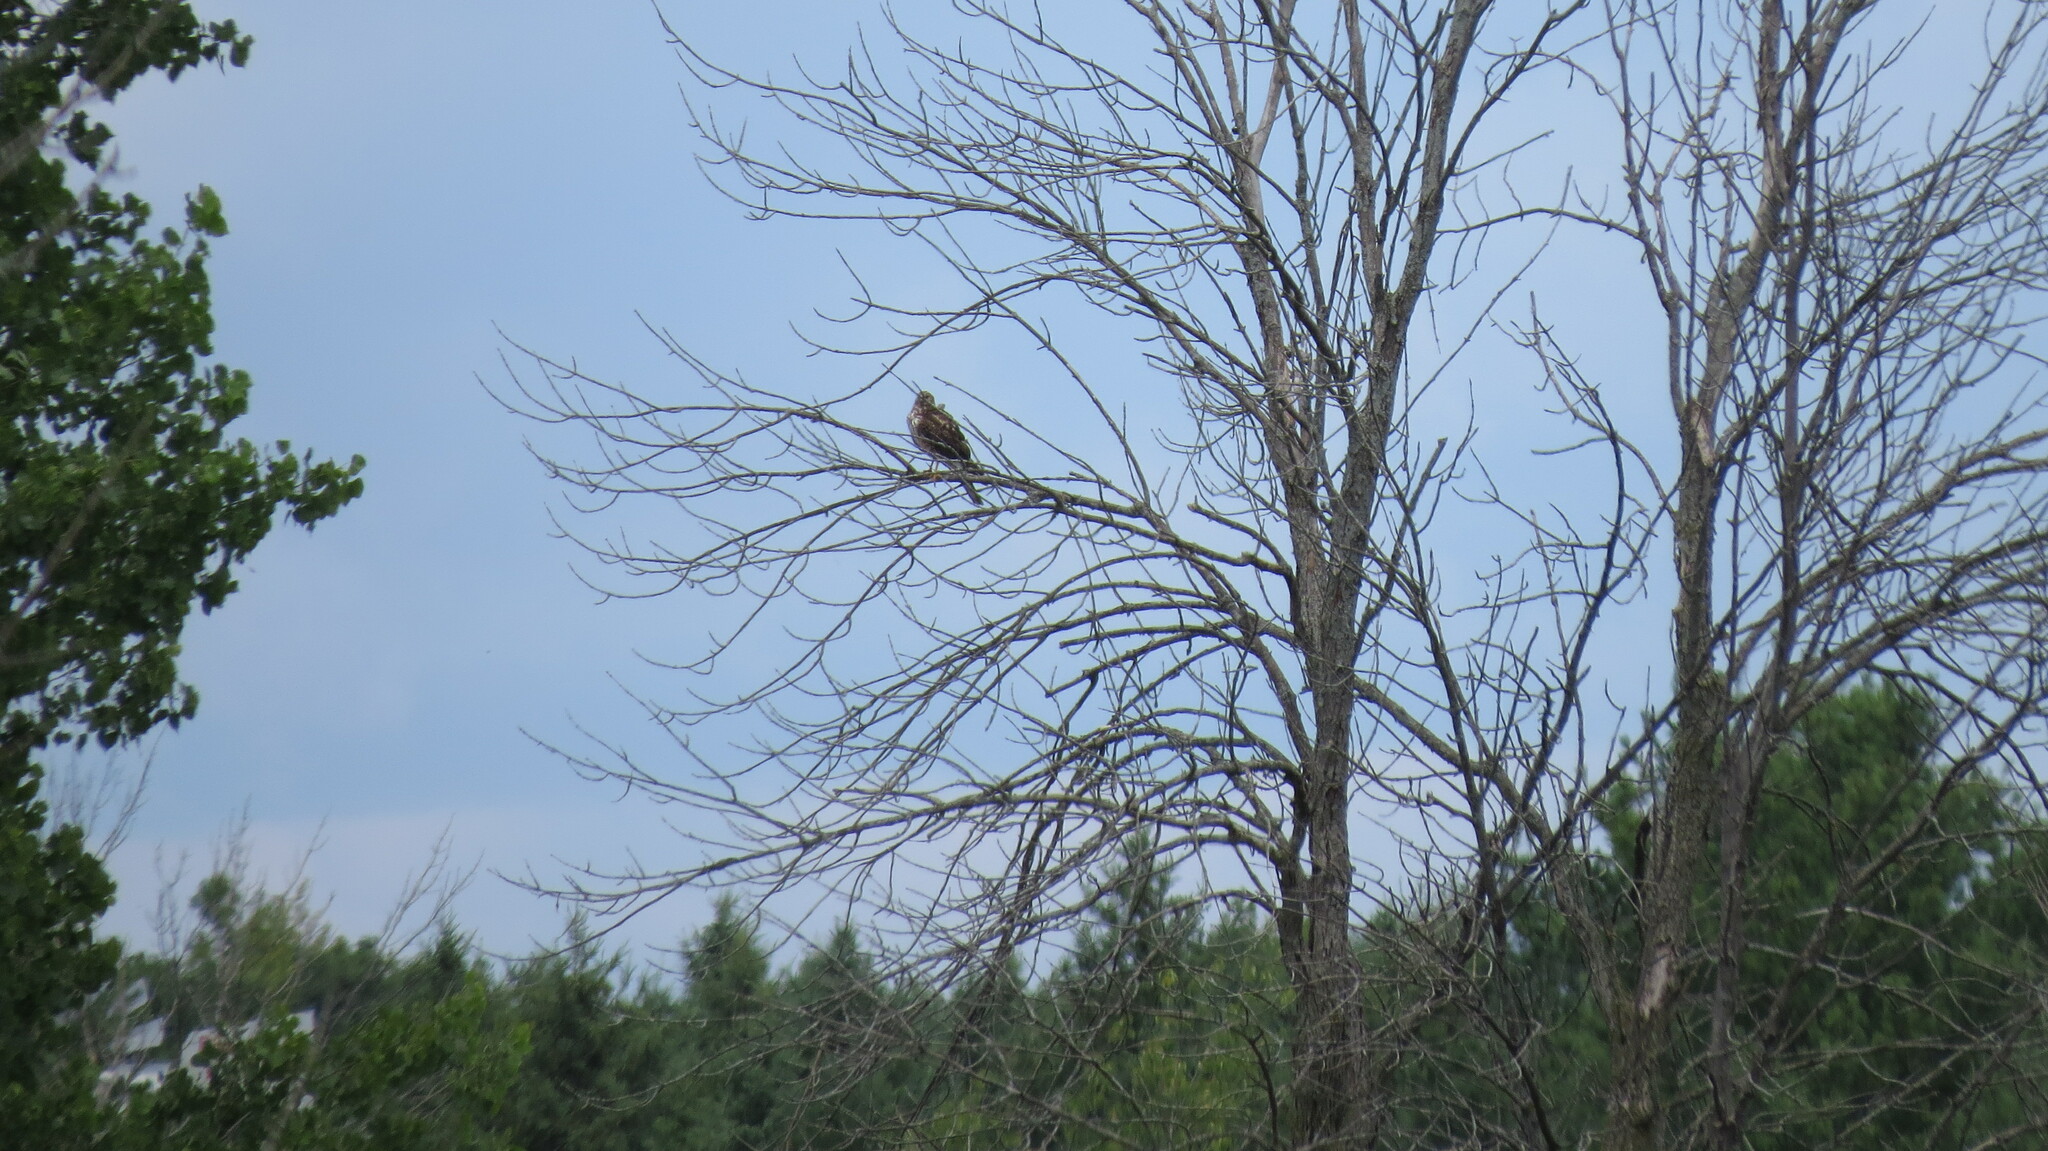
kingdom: Animalia
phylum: Chordata
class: Aves
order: Accipitriformes
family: Accipitridae
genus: Circus
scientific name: Circus cyaneus
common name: Hen harrier
